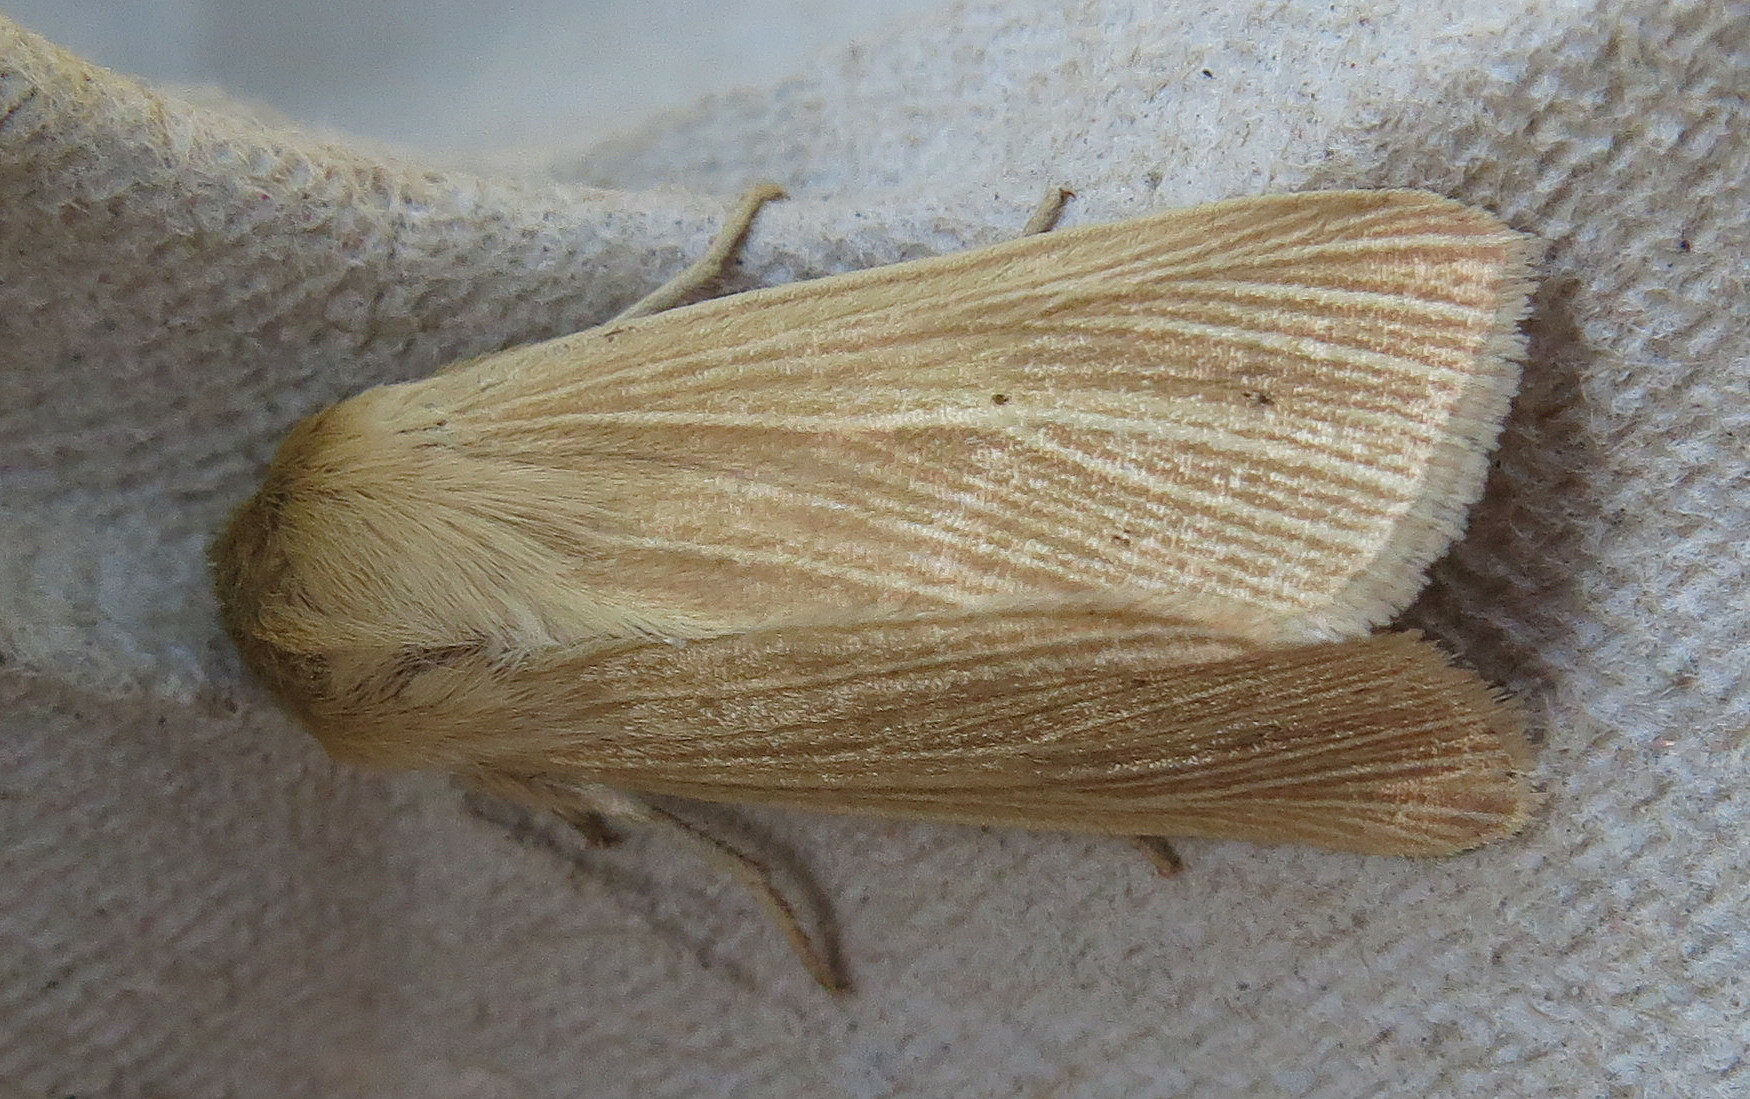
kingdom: Animalia
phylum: Arthropoda
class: Insecta
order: Lepidoptera
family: Noctuidae
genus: Mythimna
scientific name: Mythimna pallens
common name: Common wainscot
